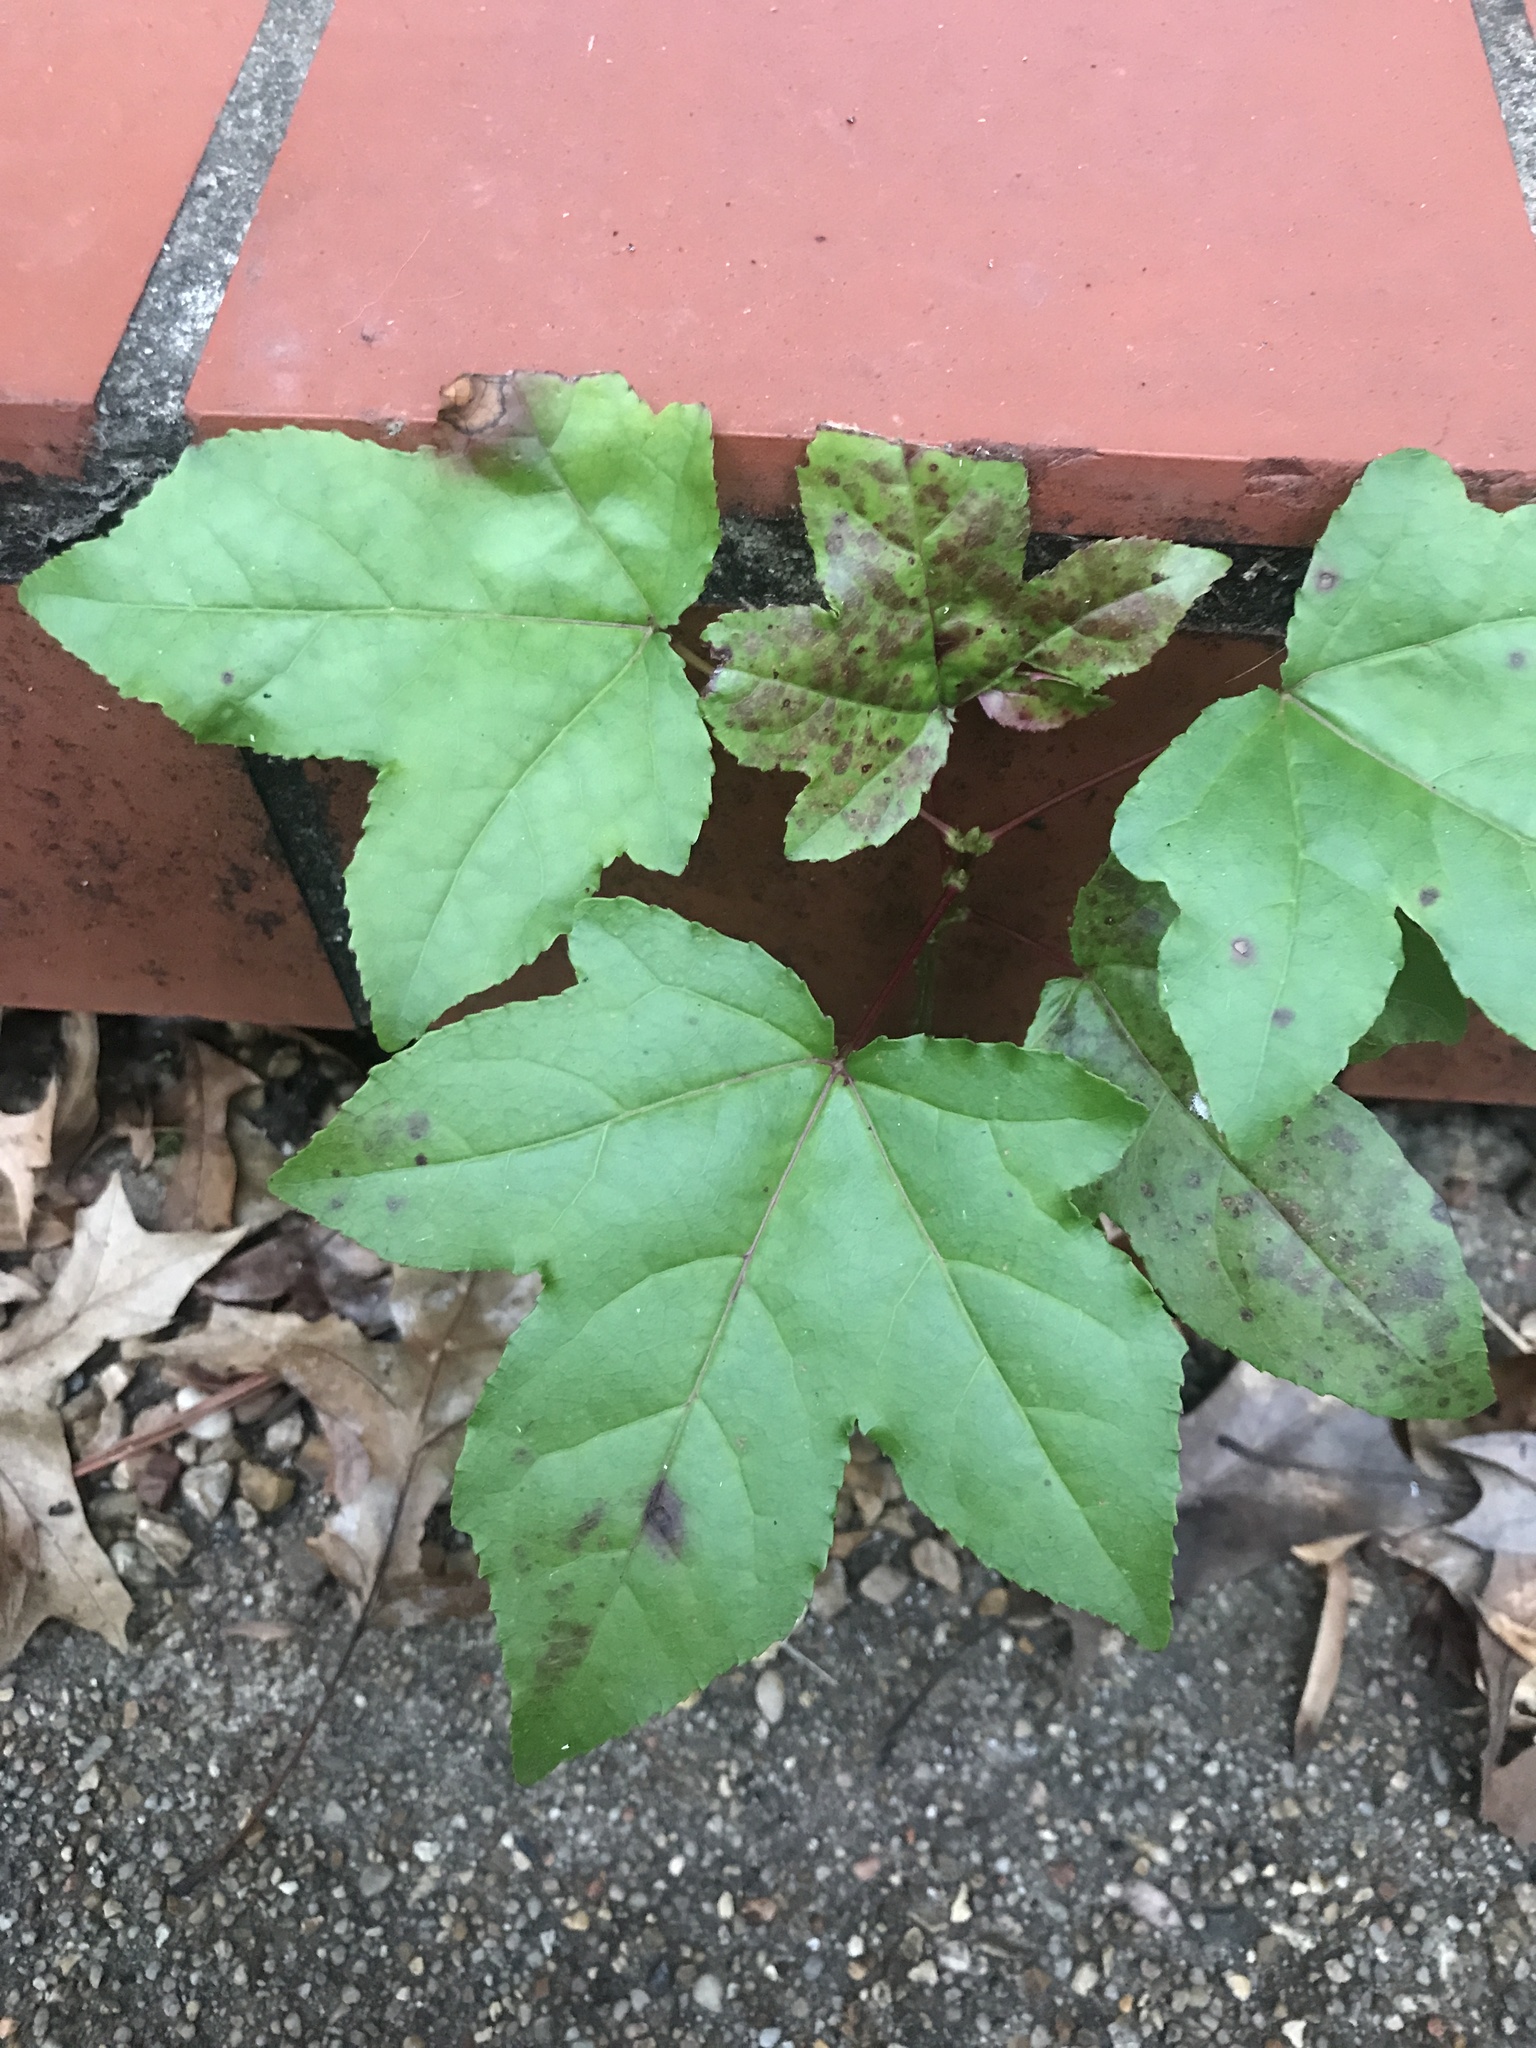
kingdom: Plantae
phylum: Tracheophyta
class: Magnoliopsida
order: Saxifragales
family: Altingiaceae
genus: Liquidambar
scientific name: Liquidambar styraciflua
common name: Sweet gum
